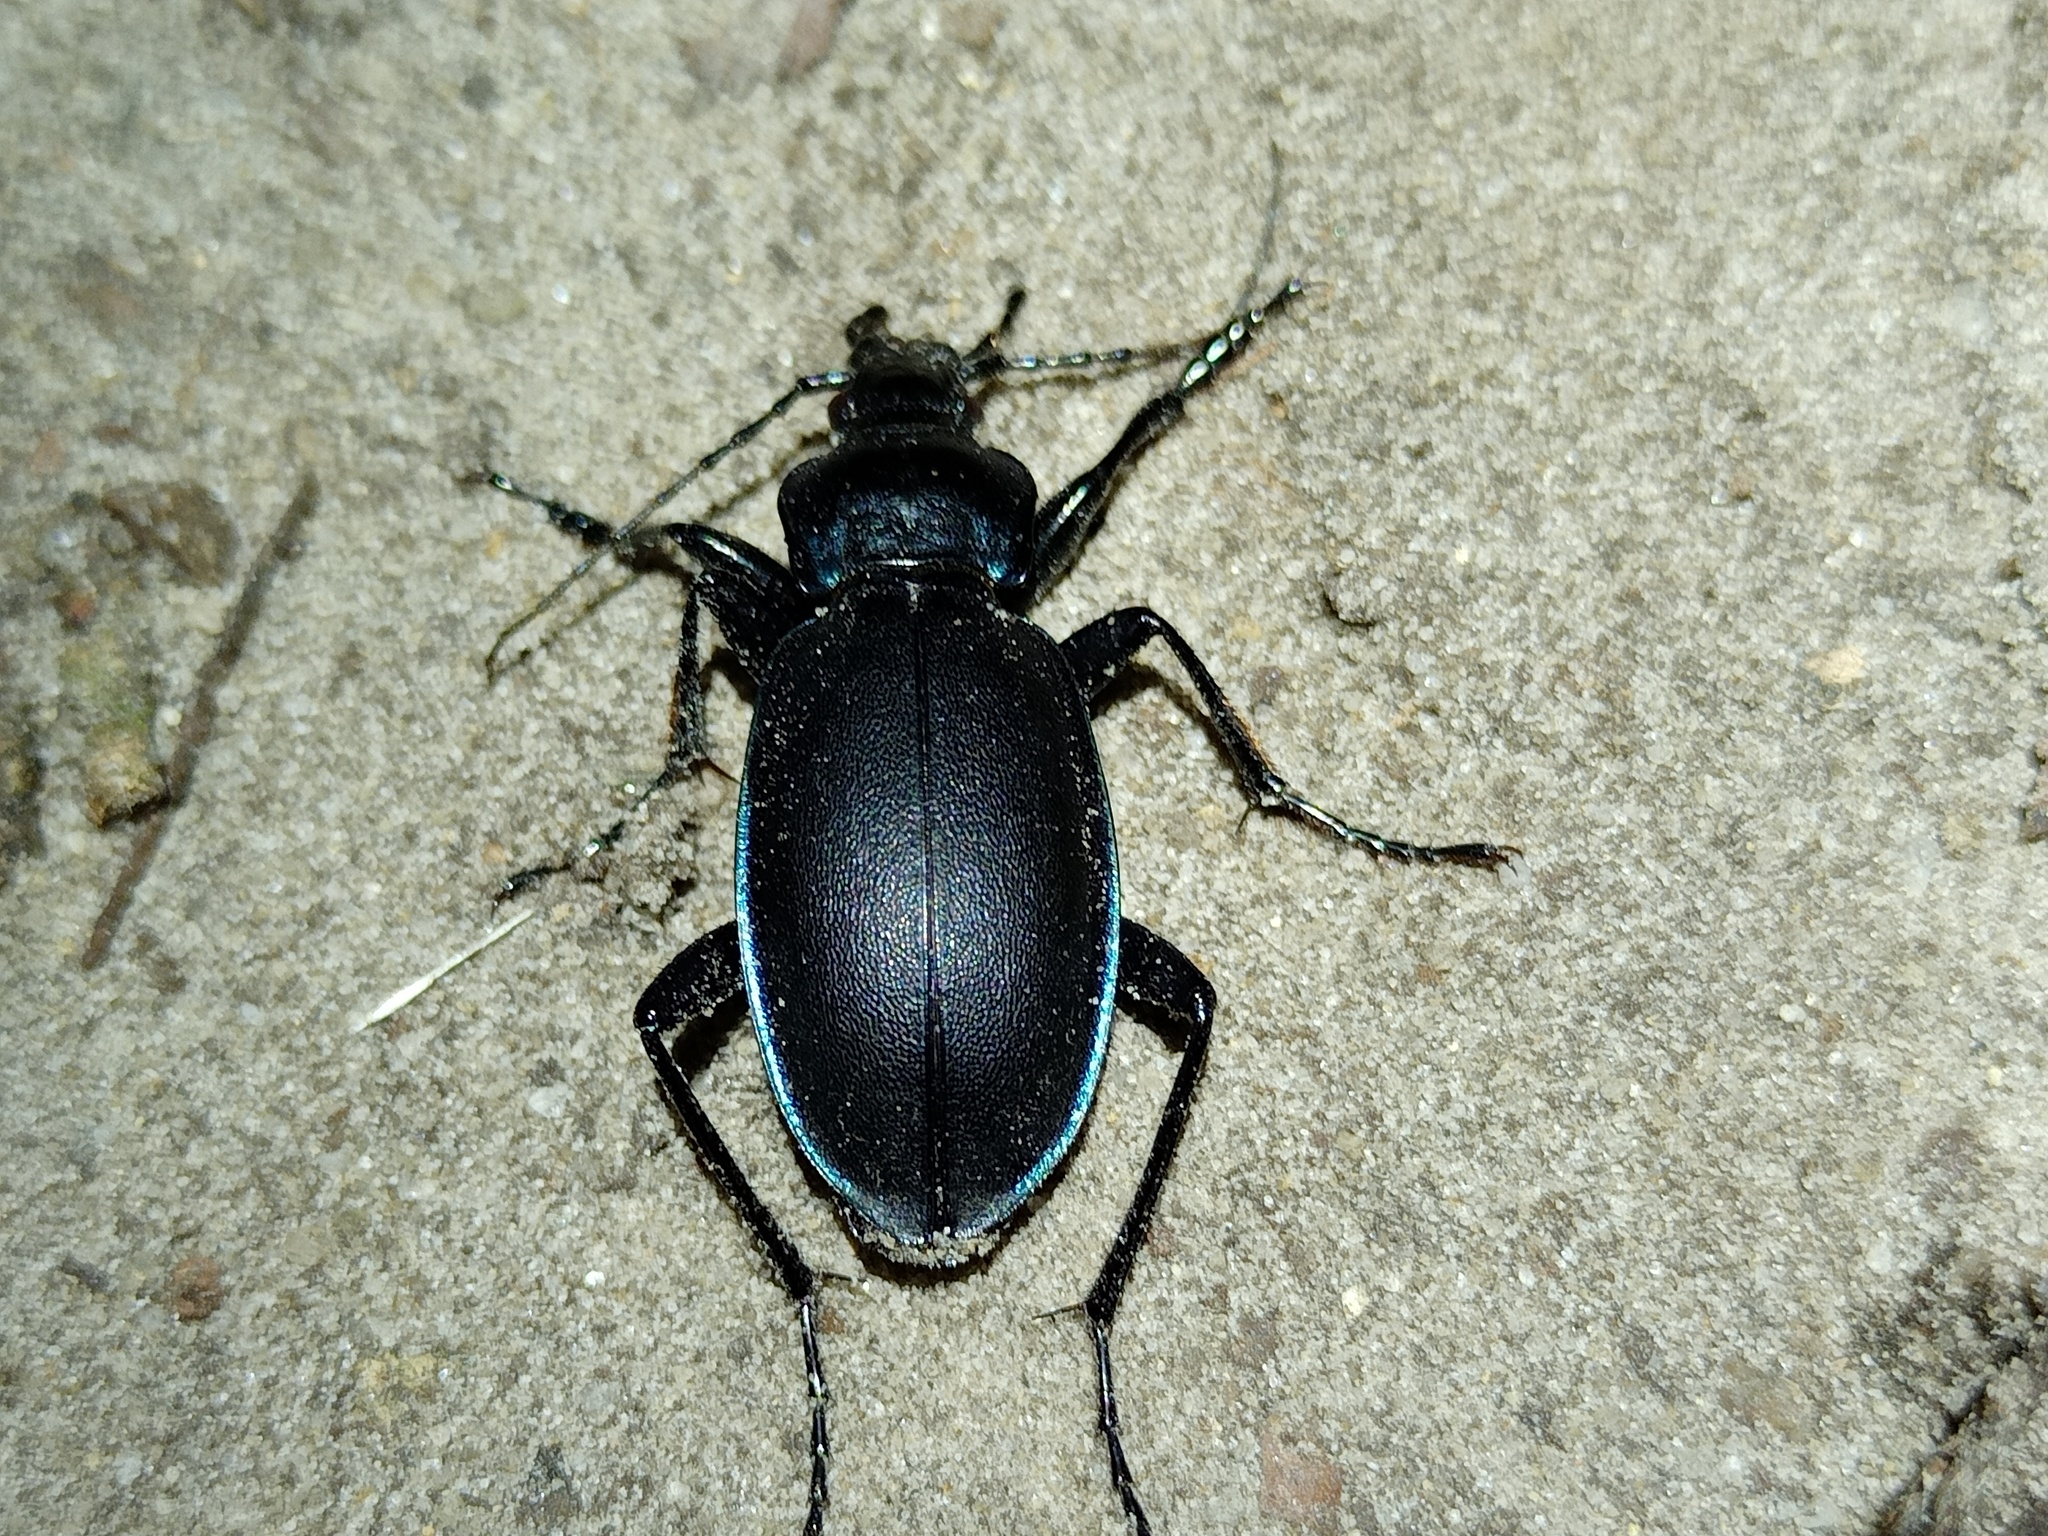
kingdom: Animalia
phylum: Arthropoda
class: Insecta
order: Coleoptera
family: Carabidae
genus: Carabus
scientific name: Carabus violaceus
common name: Violet ground beetle
